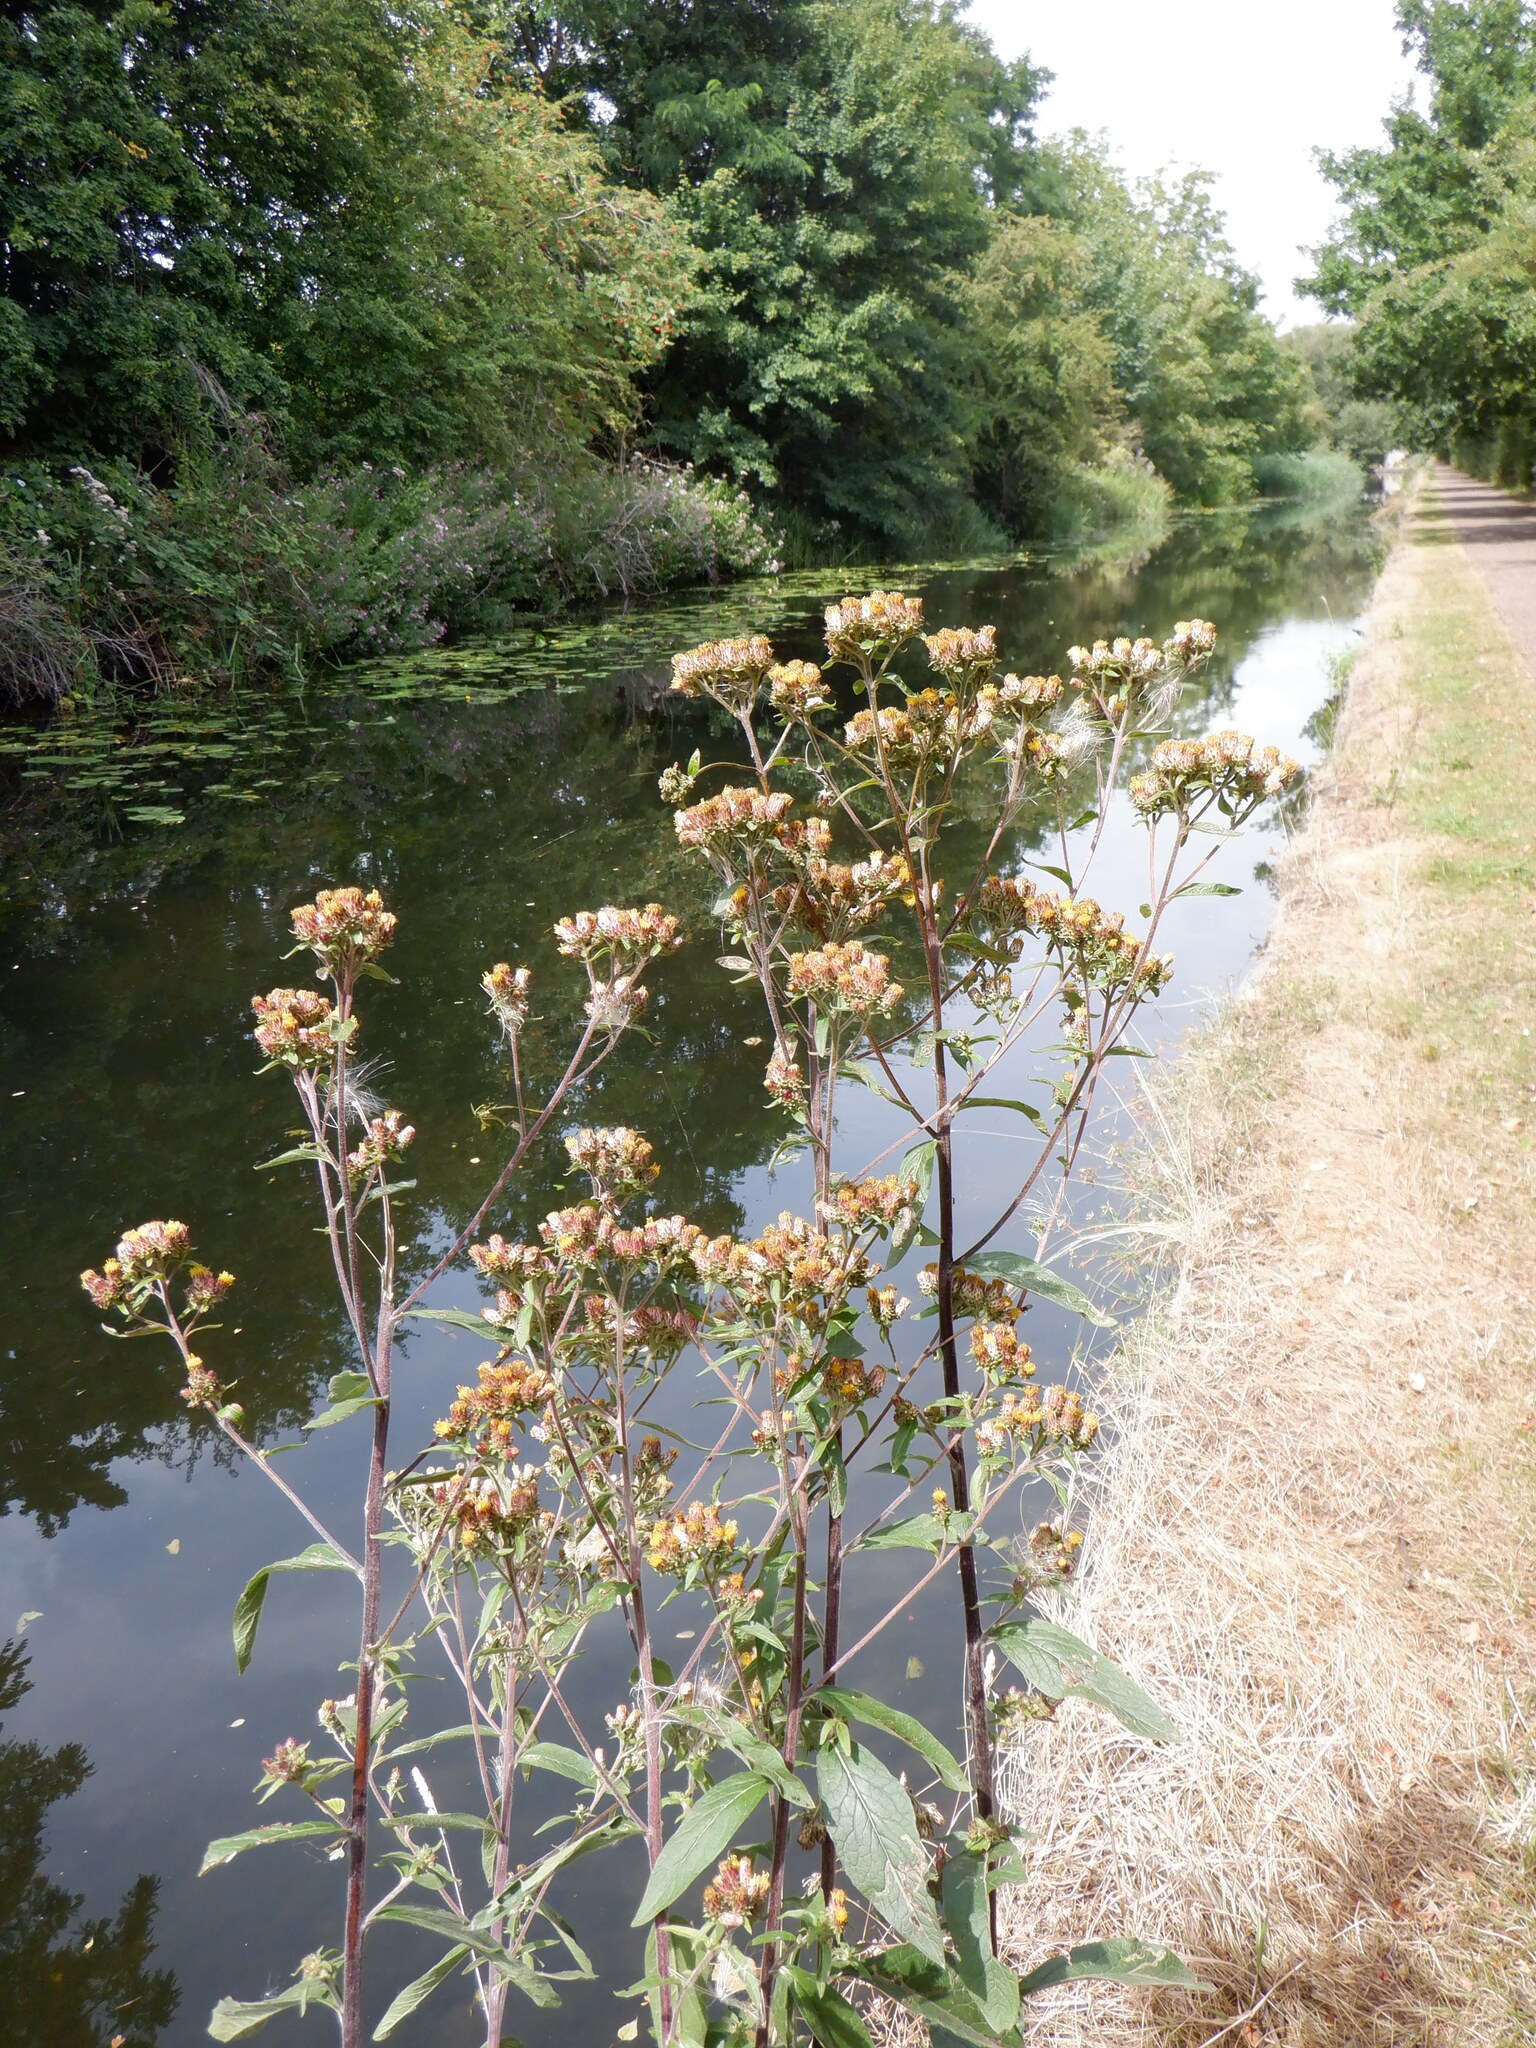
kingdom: Plantae
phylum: Tracheophyta
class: Magnoliopsida
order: Asterales
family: Asteraceae
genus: Pentanema
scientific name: Pentanema squarrosum
